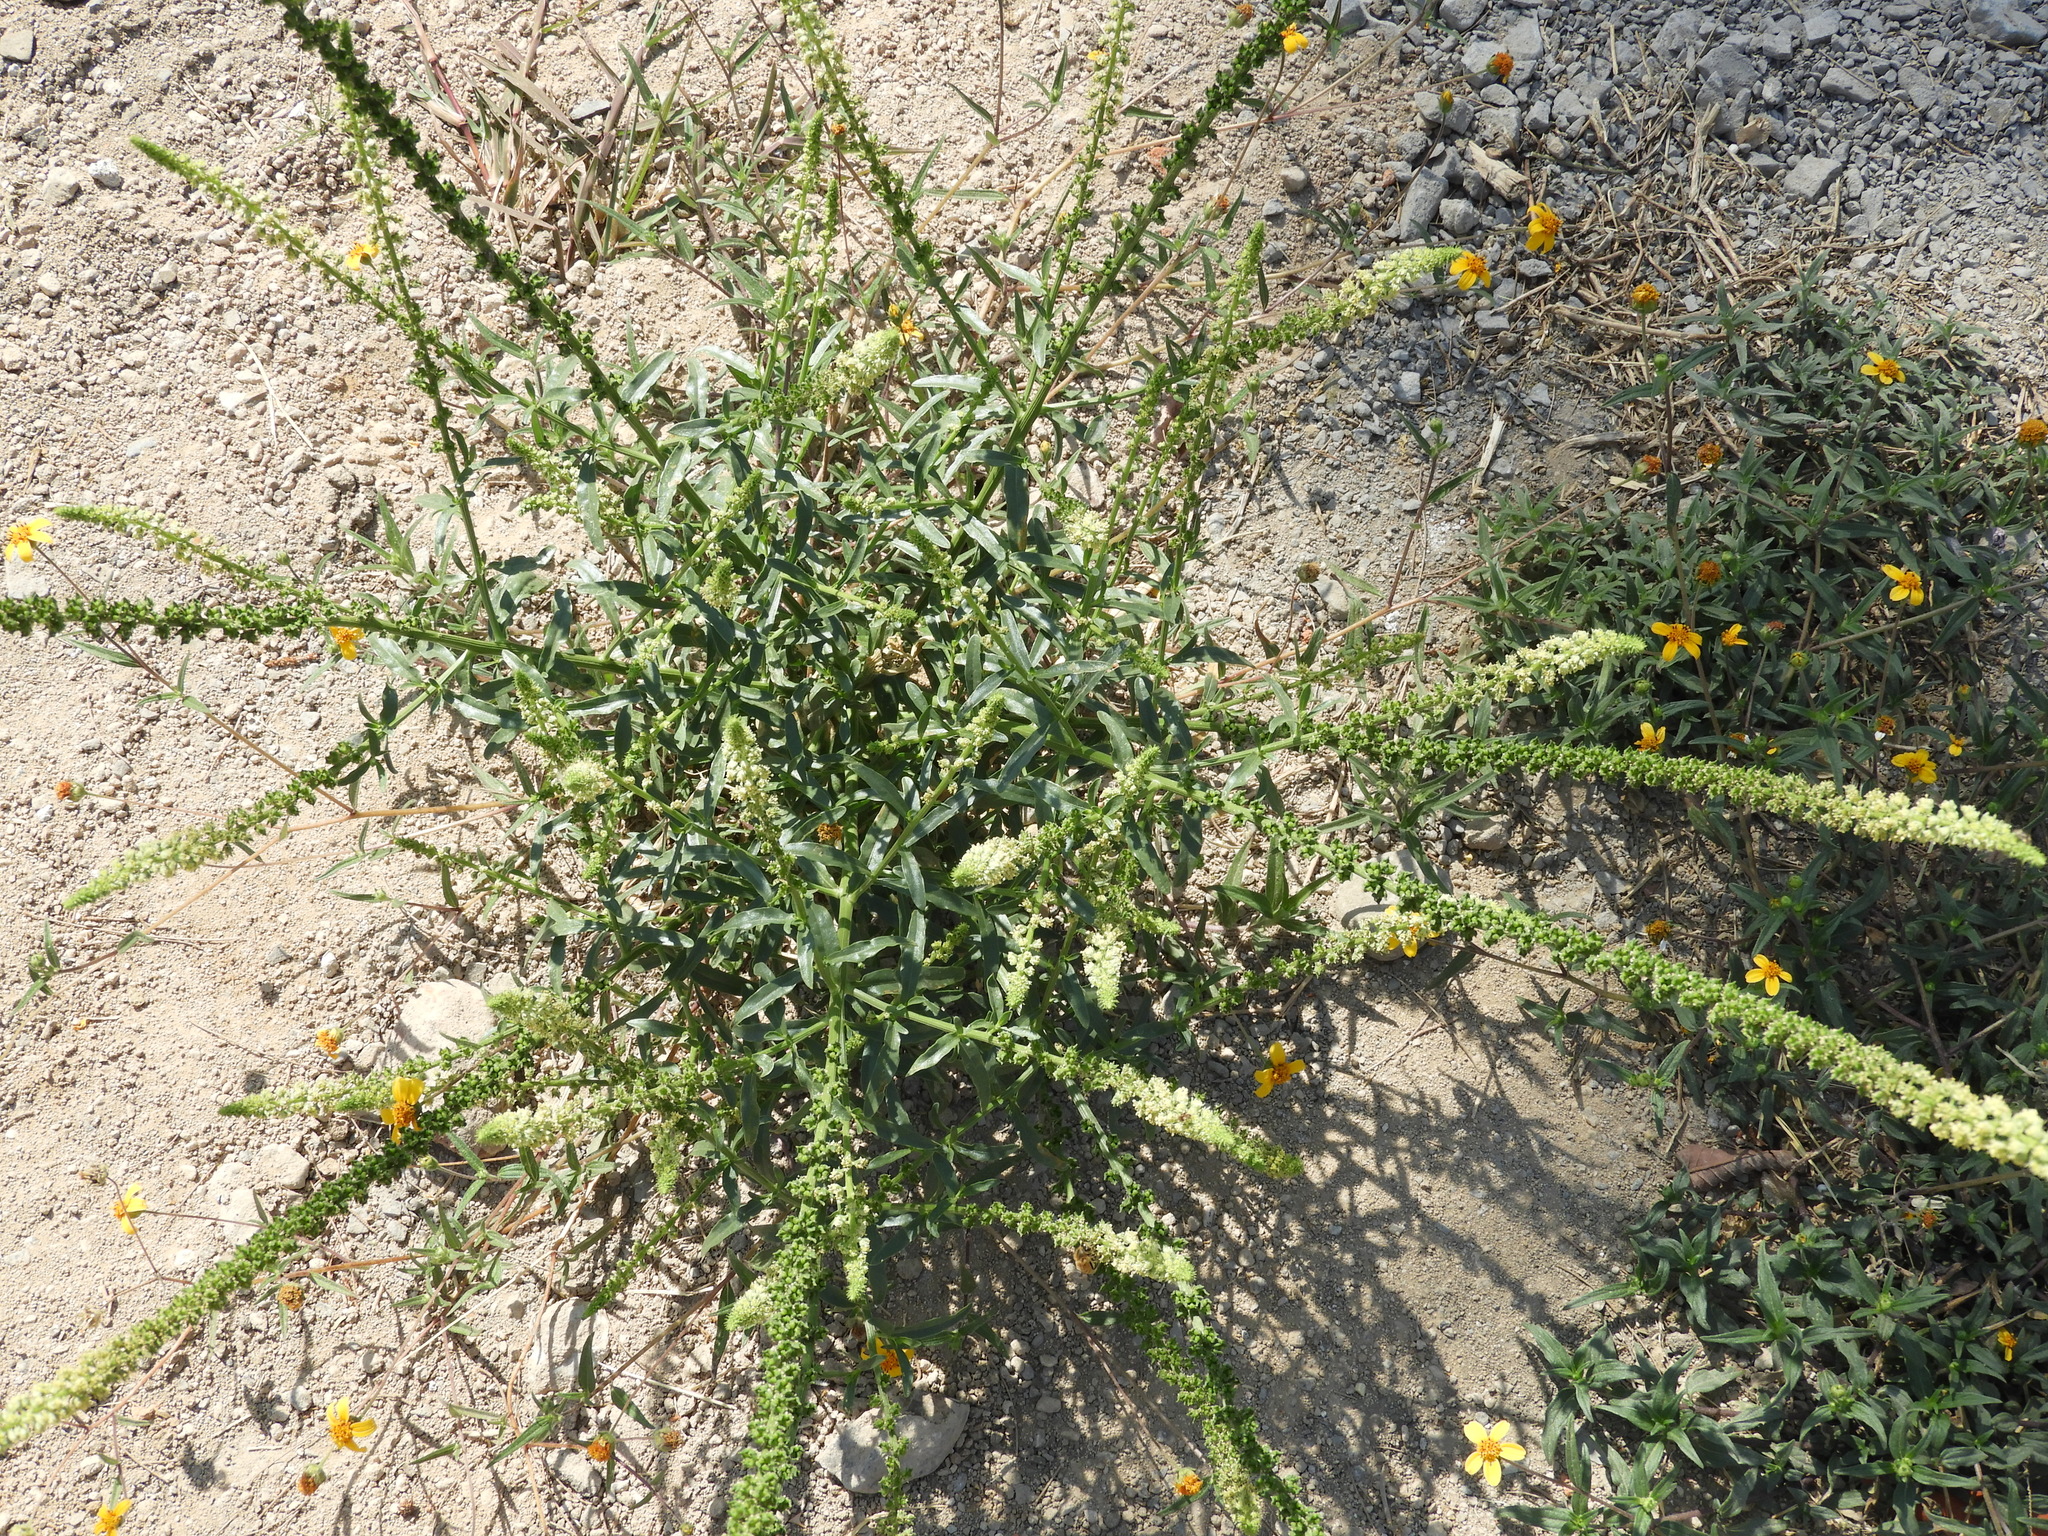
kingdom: Plantae
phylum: Tracheophyta
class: Magnoliopsida
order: Brassicales
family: Resedaceae
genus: Reseda
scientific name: Reseda luteola
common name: Weld
